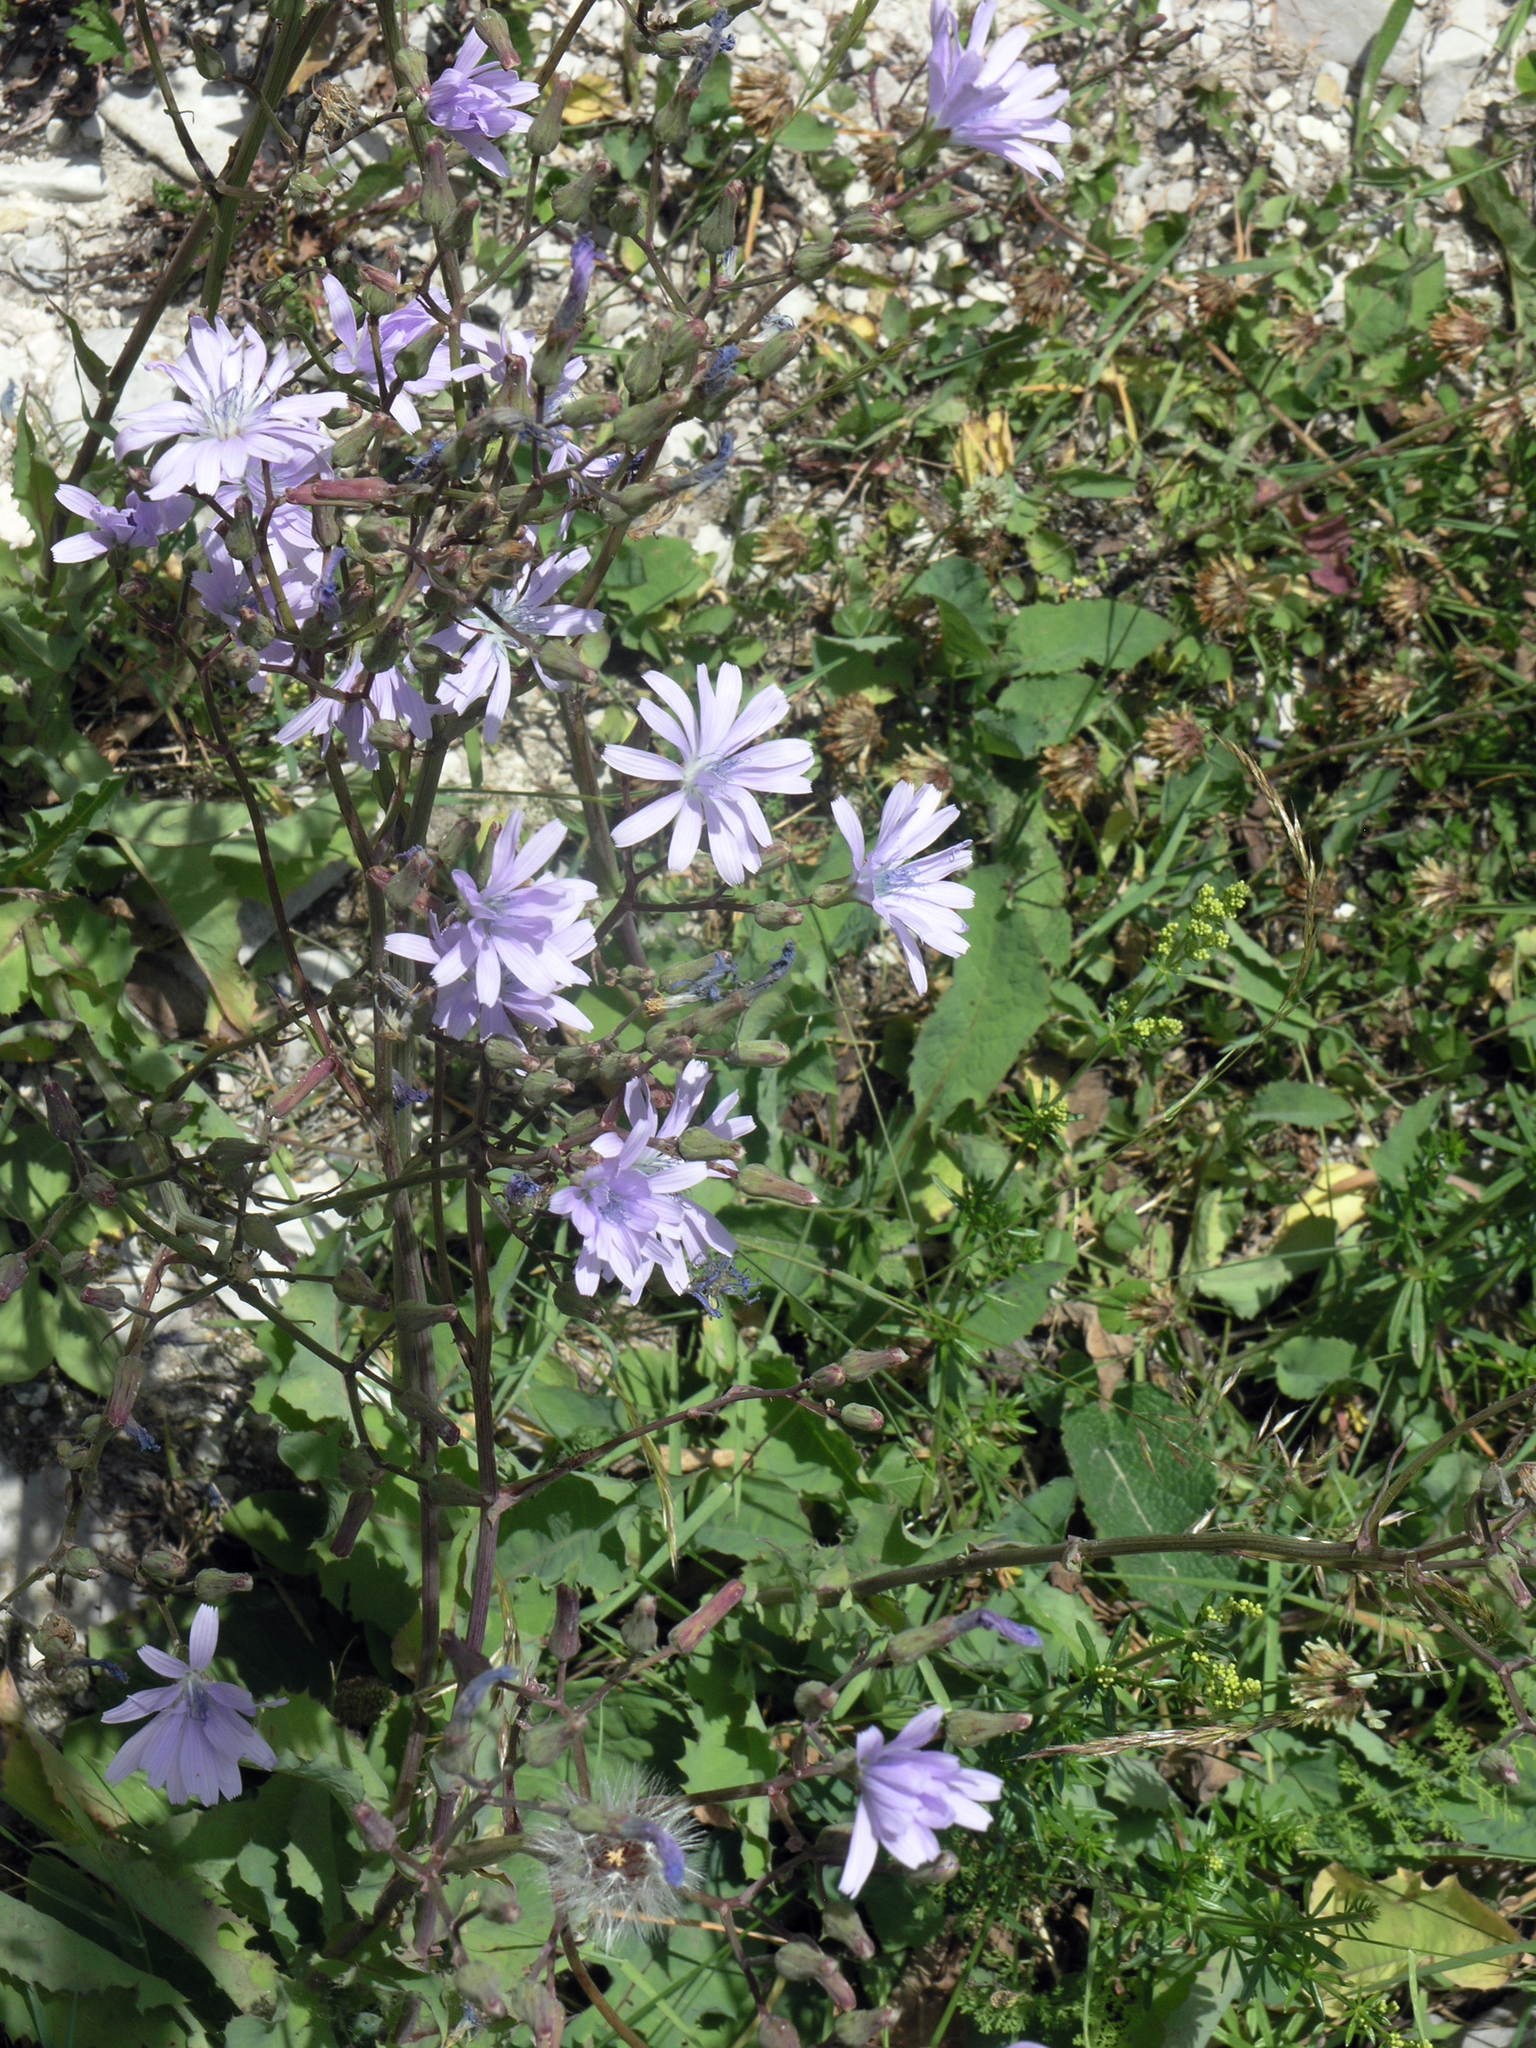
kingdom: Plantae
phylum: Tracheophyta
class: Magnoliopsida
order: Asterales
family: Asteraceae
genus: Lactuca
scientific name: Lactuca racemosa
